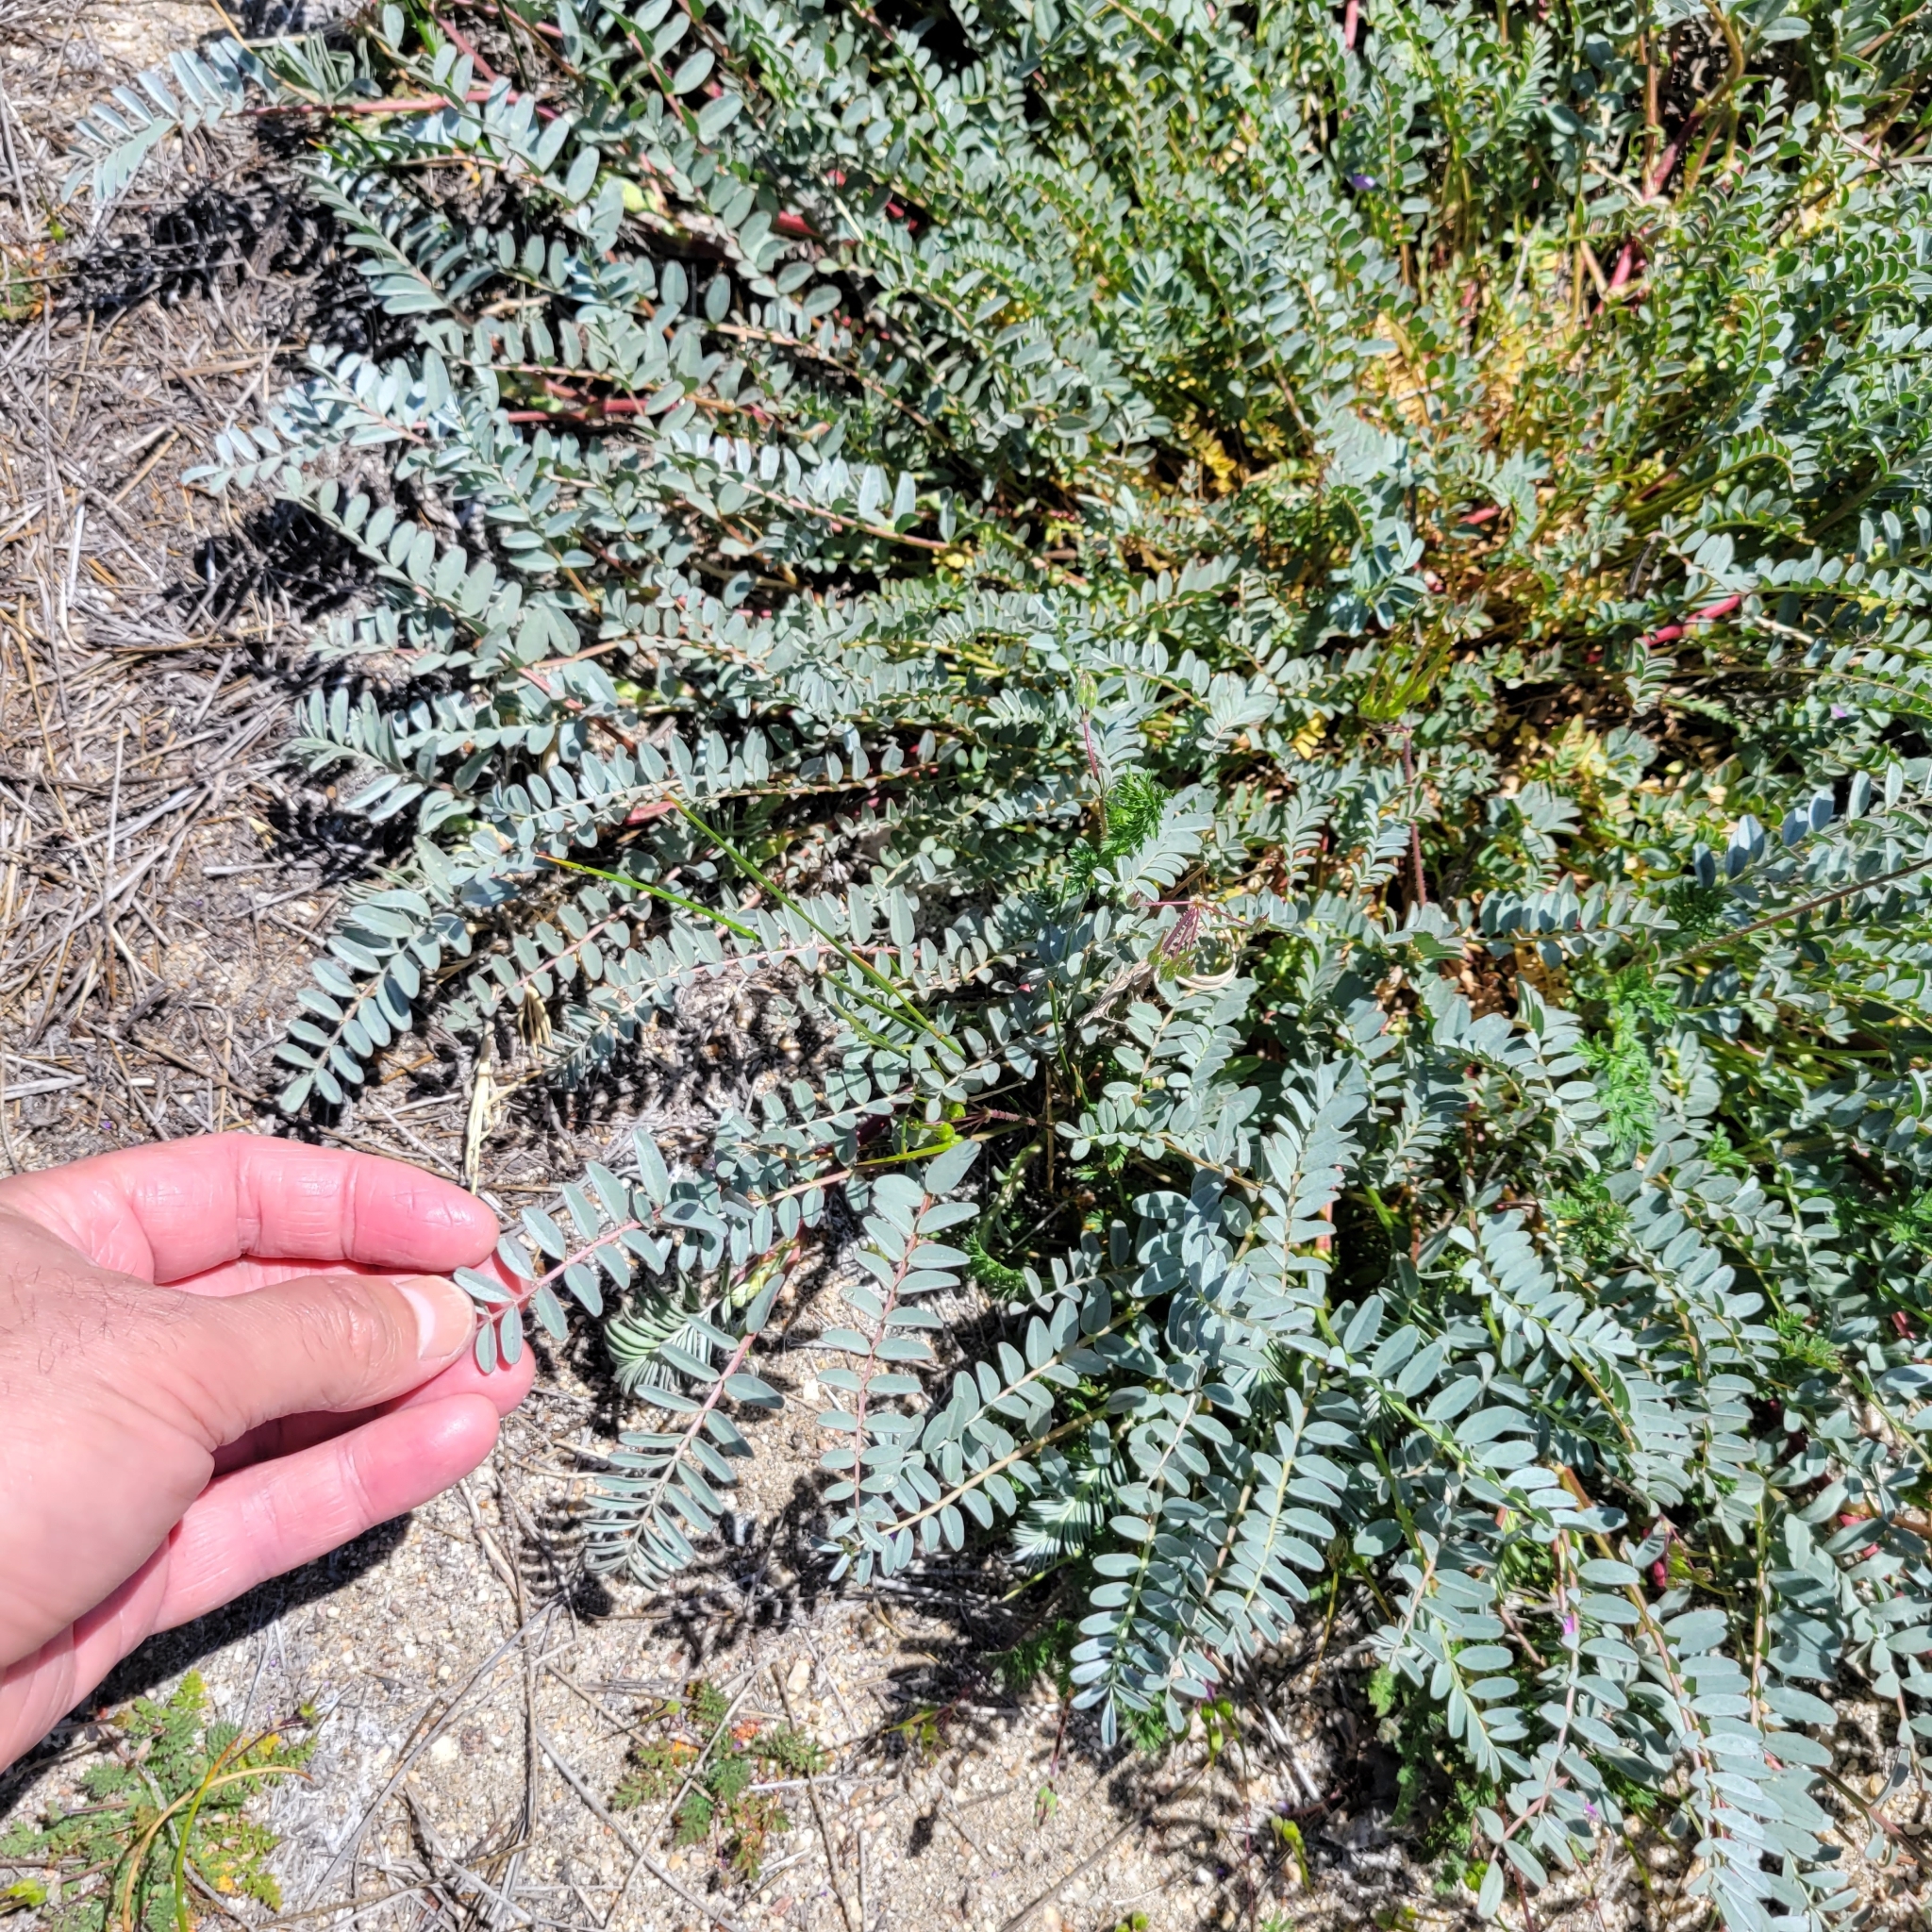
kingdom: Plantae
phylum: Tracheophyta
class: Magnoliopsida
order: Fabales
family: Fabaceae
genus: Astragalus
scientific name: Astragalus douglasii
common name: Jacumba milkvetch
